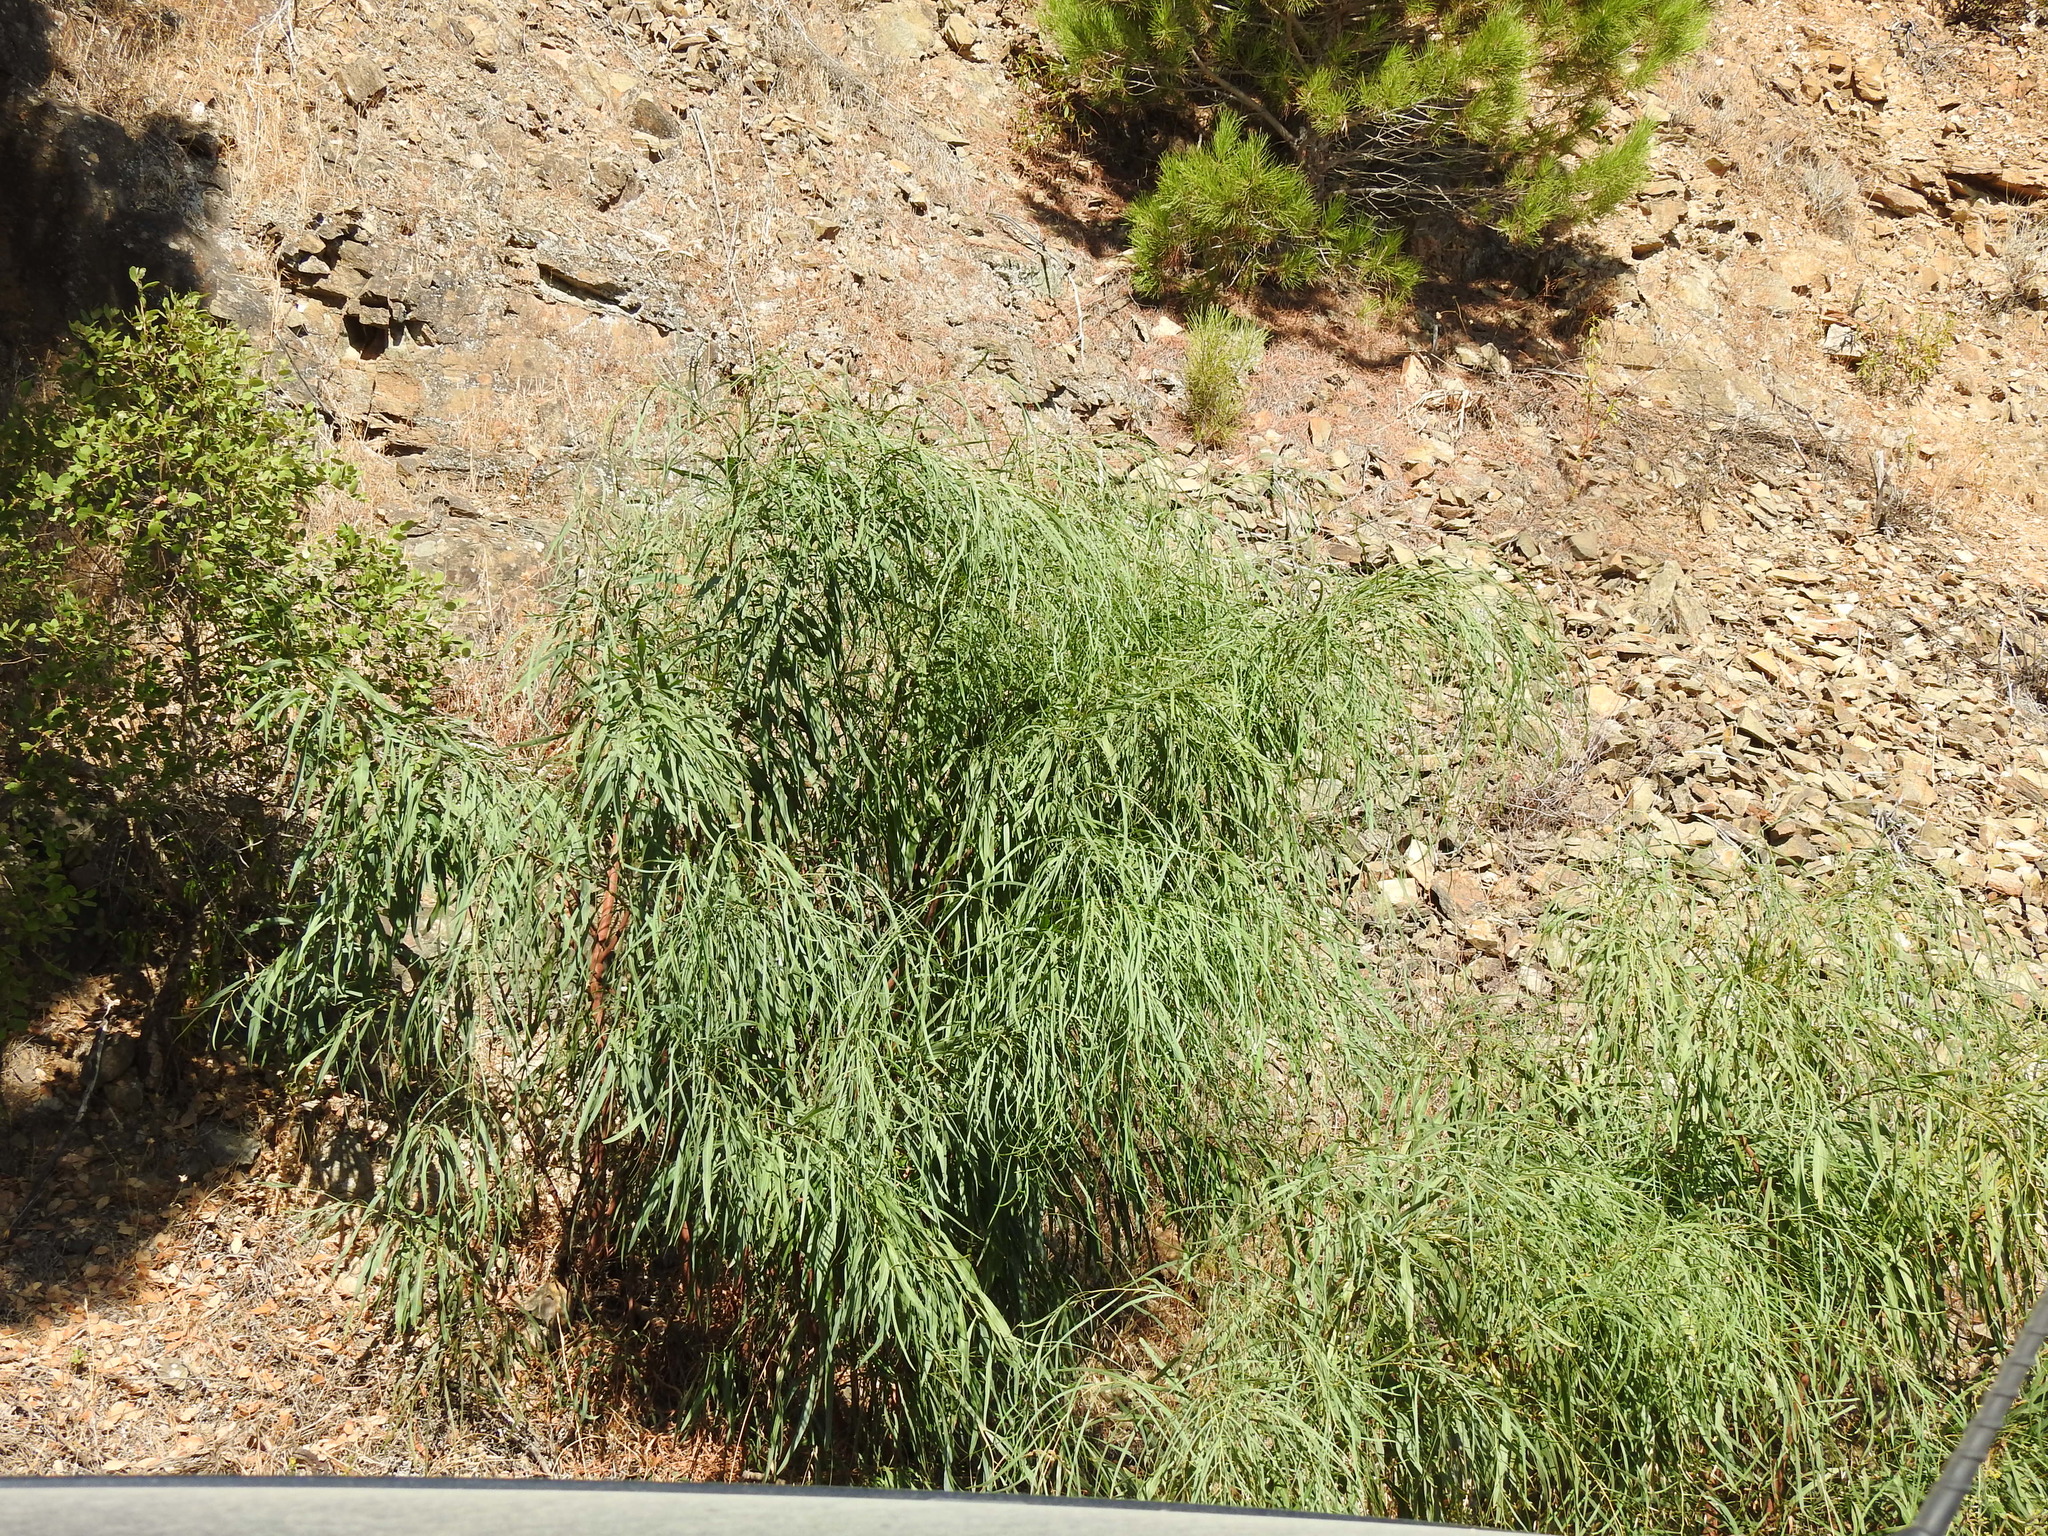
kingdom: Plantae
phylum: Tracheophyta
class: Magnoliopsida
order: Fabales
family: Fabaceae
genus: Acacia
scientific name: Acacia saligna
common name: Orange wattle
